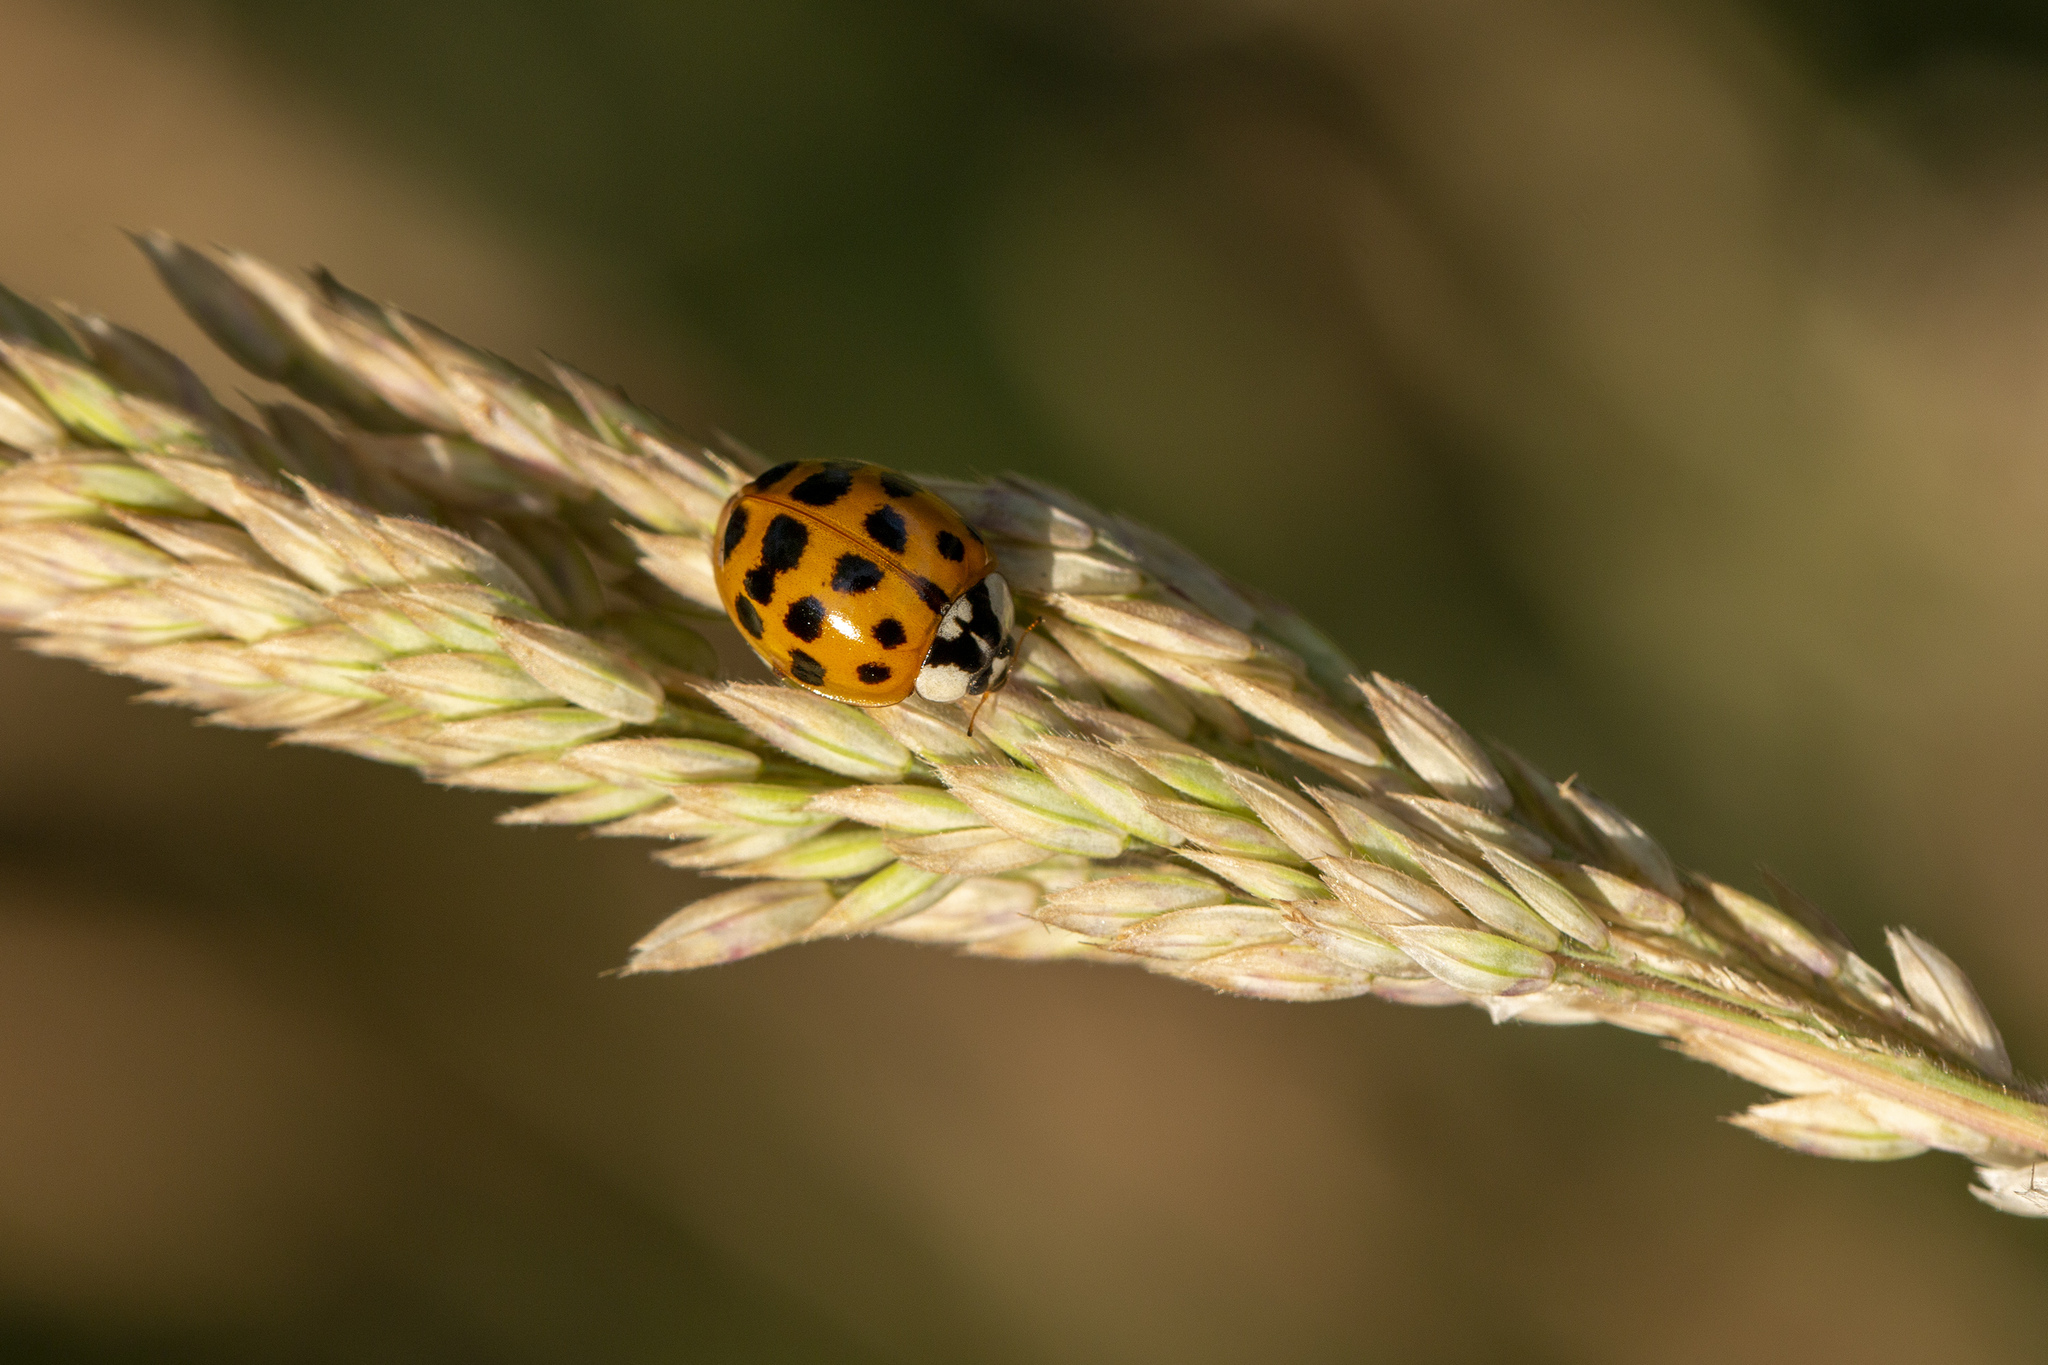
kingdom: Animalia
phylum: Arthropoda
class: Insecta
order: Coleoptera
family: Coccinellidae
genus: Harmonia
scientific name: Harmonia axyridis
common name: Harlequin ladybird
